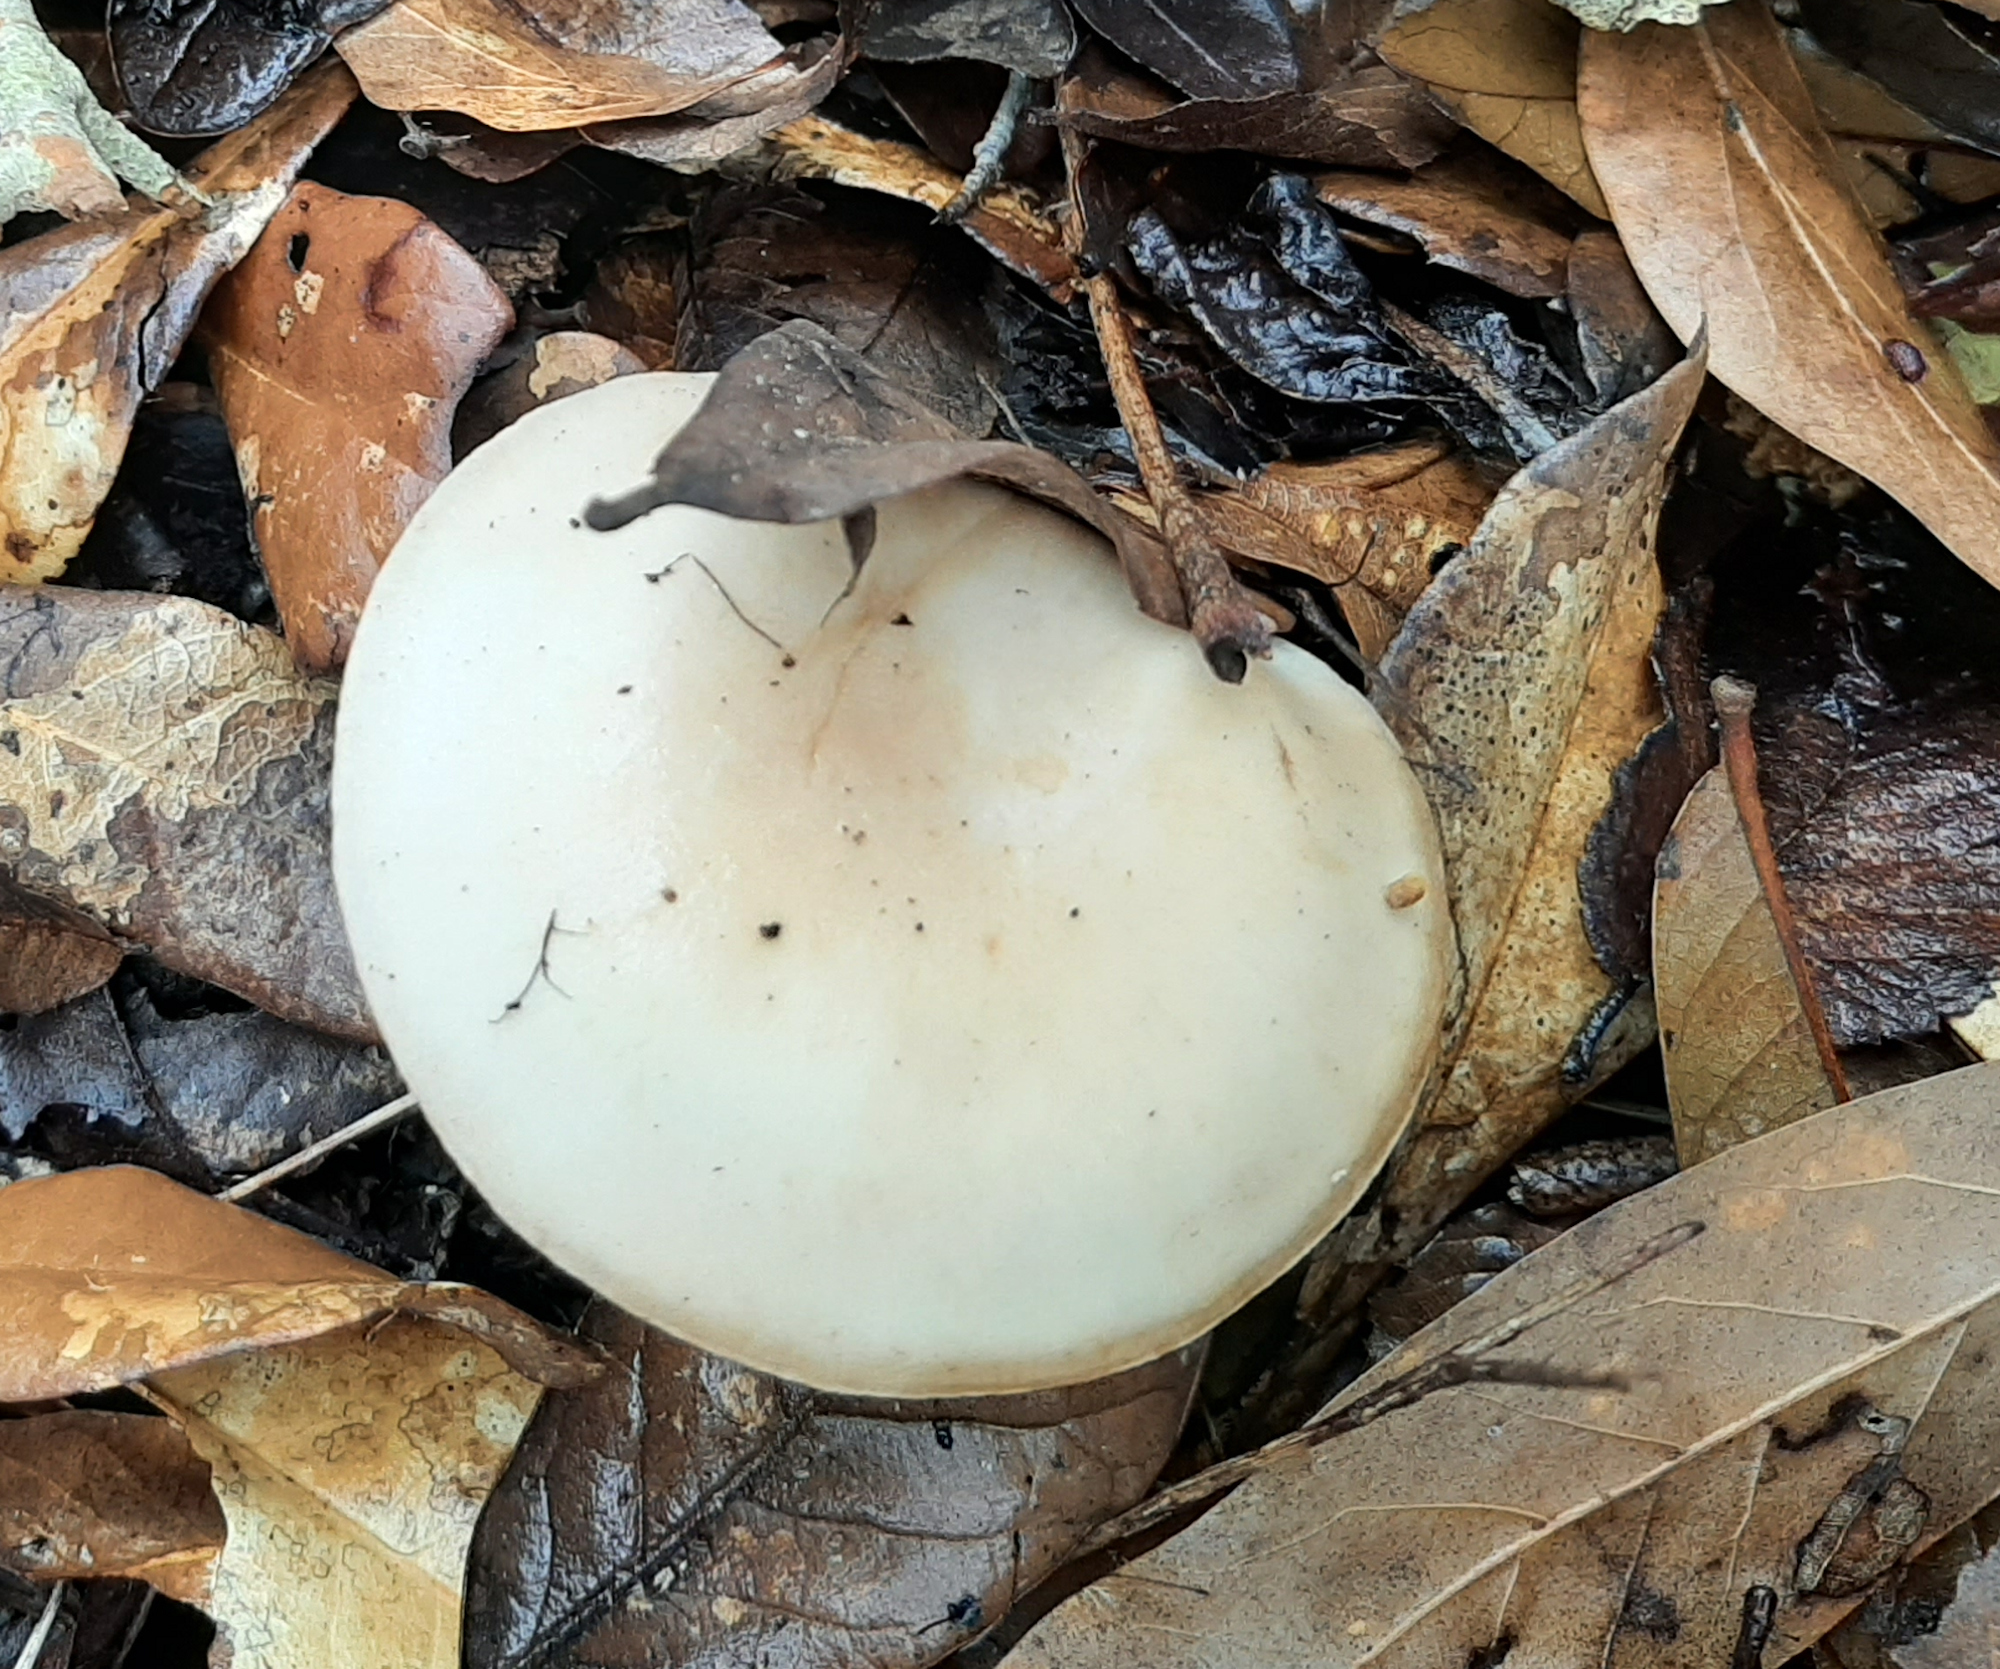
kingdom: Fungi
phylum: Basidiomycota
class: Agaricomycetes
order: Agaricales
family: Pluteaceae
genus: Volvopluteus
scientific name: Volvopluteus gloiocephalus
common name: Stubble rosegill
